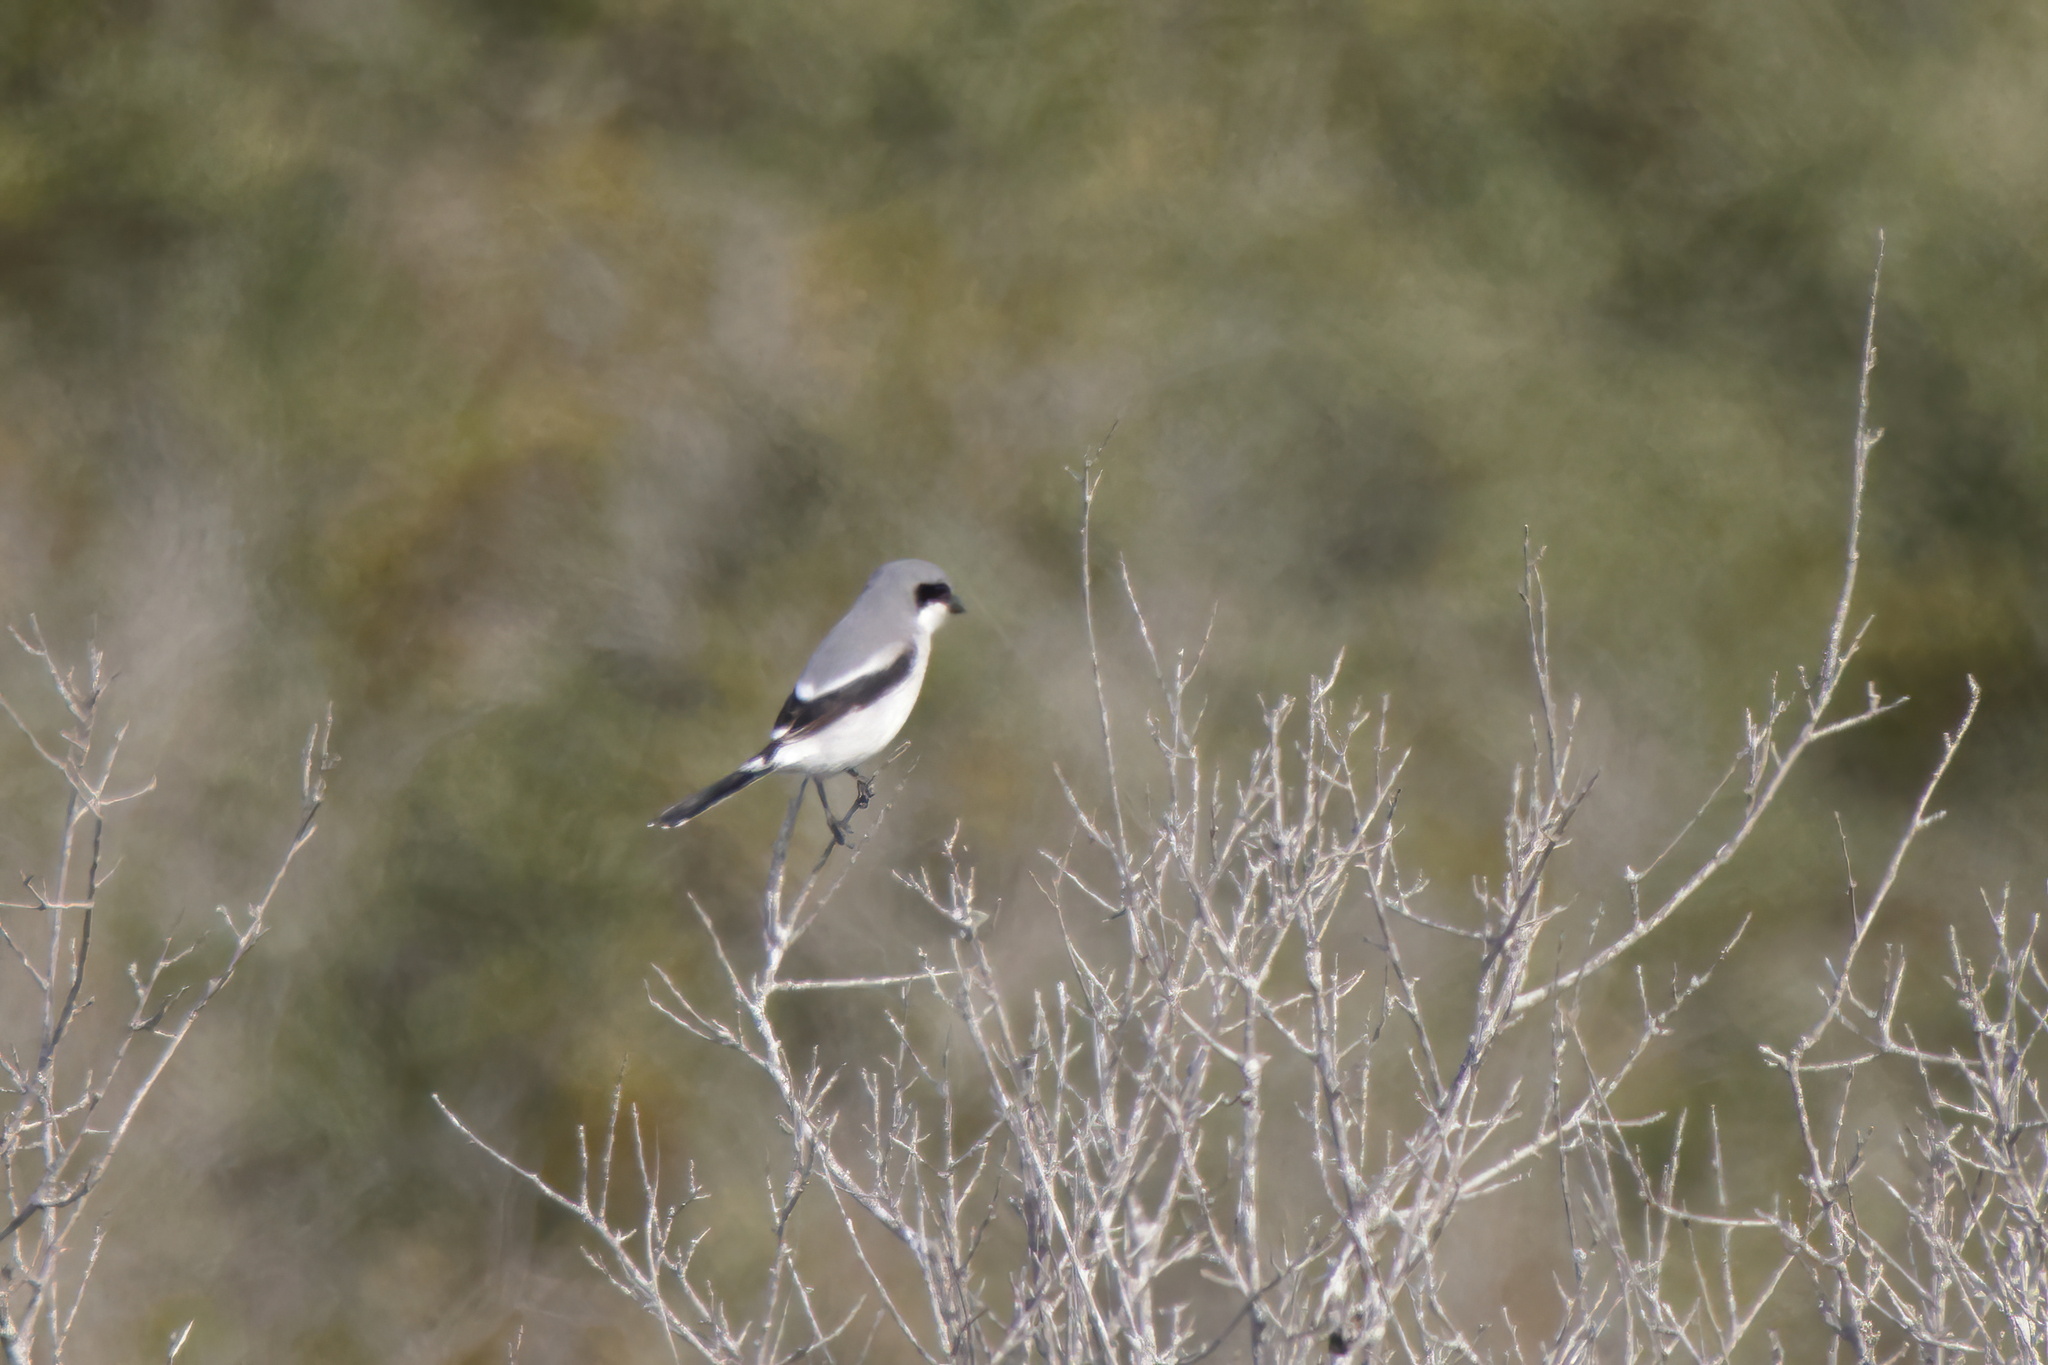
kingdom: Animalia
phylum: Chordata
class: Aves
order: Passeriformes
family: Laniidae
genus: Lanius
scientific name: Lanius ludovicianus
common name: Loggerhead shrike
